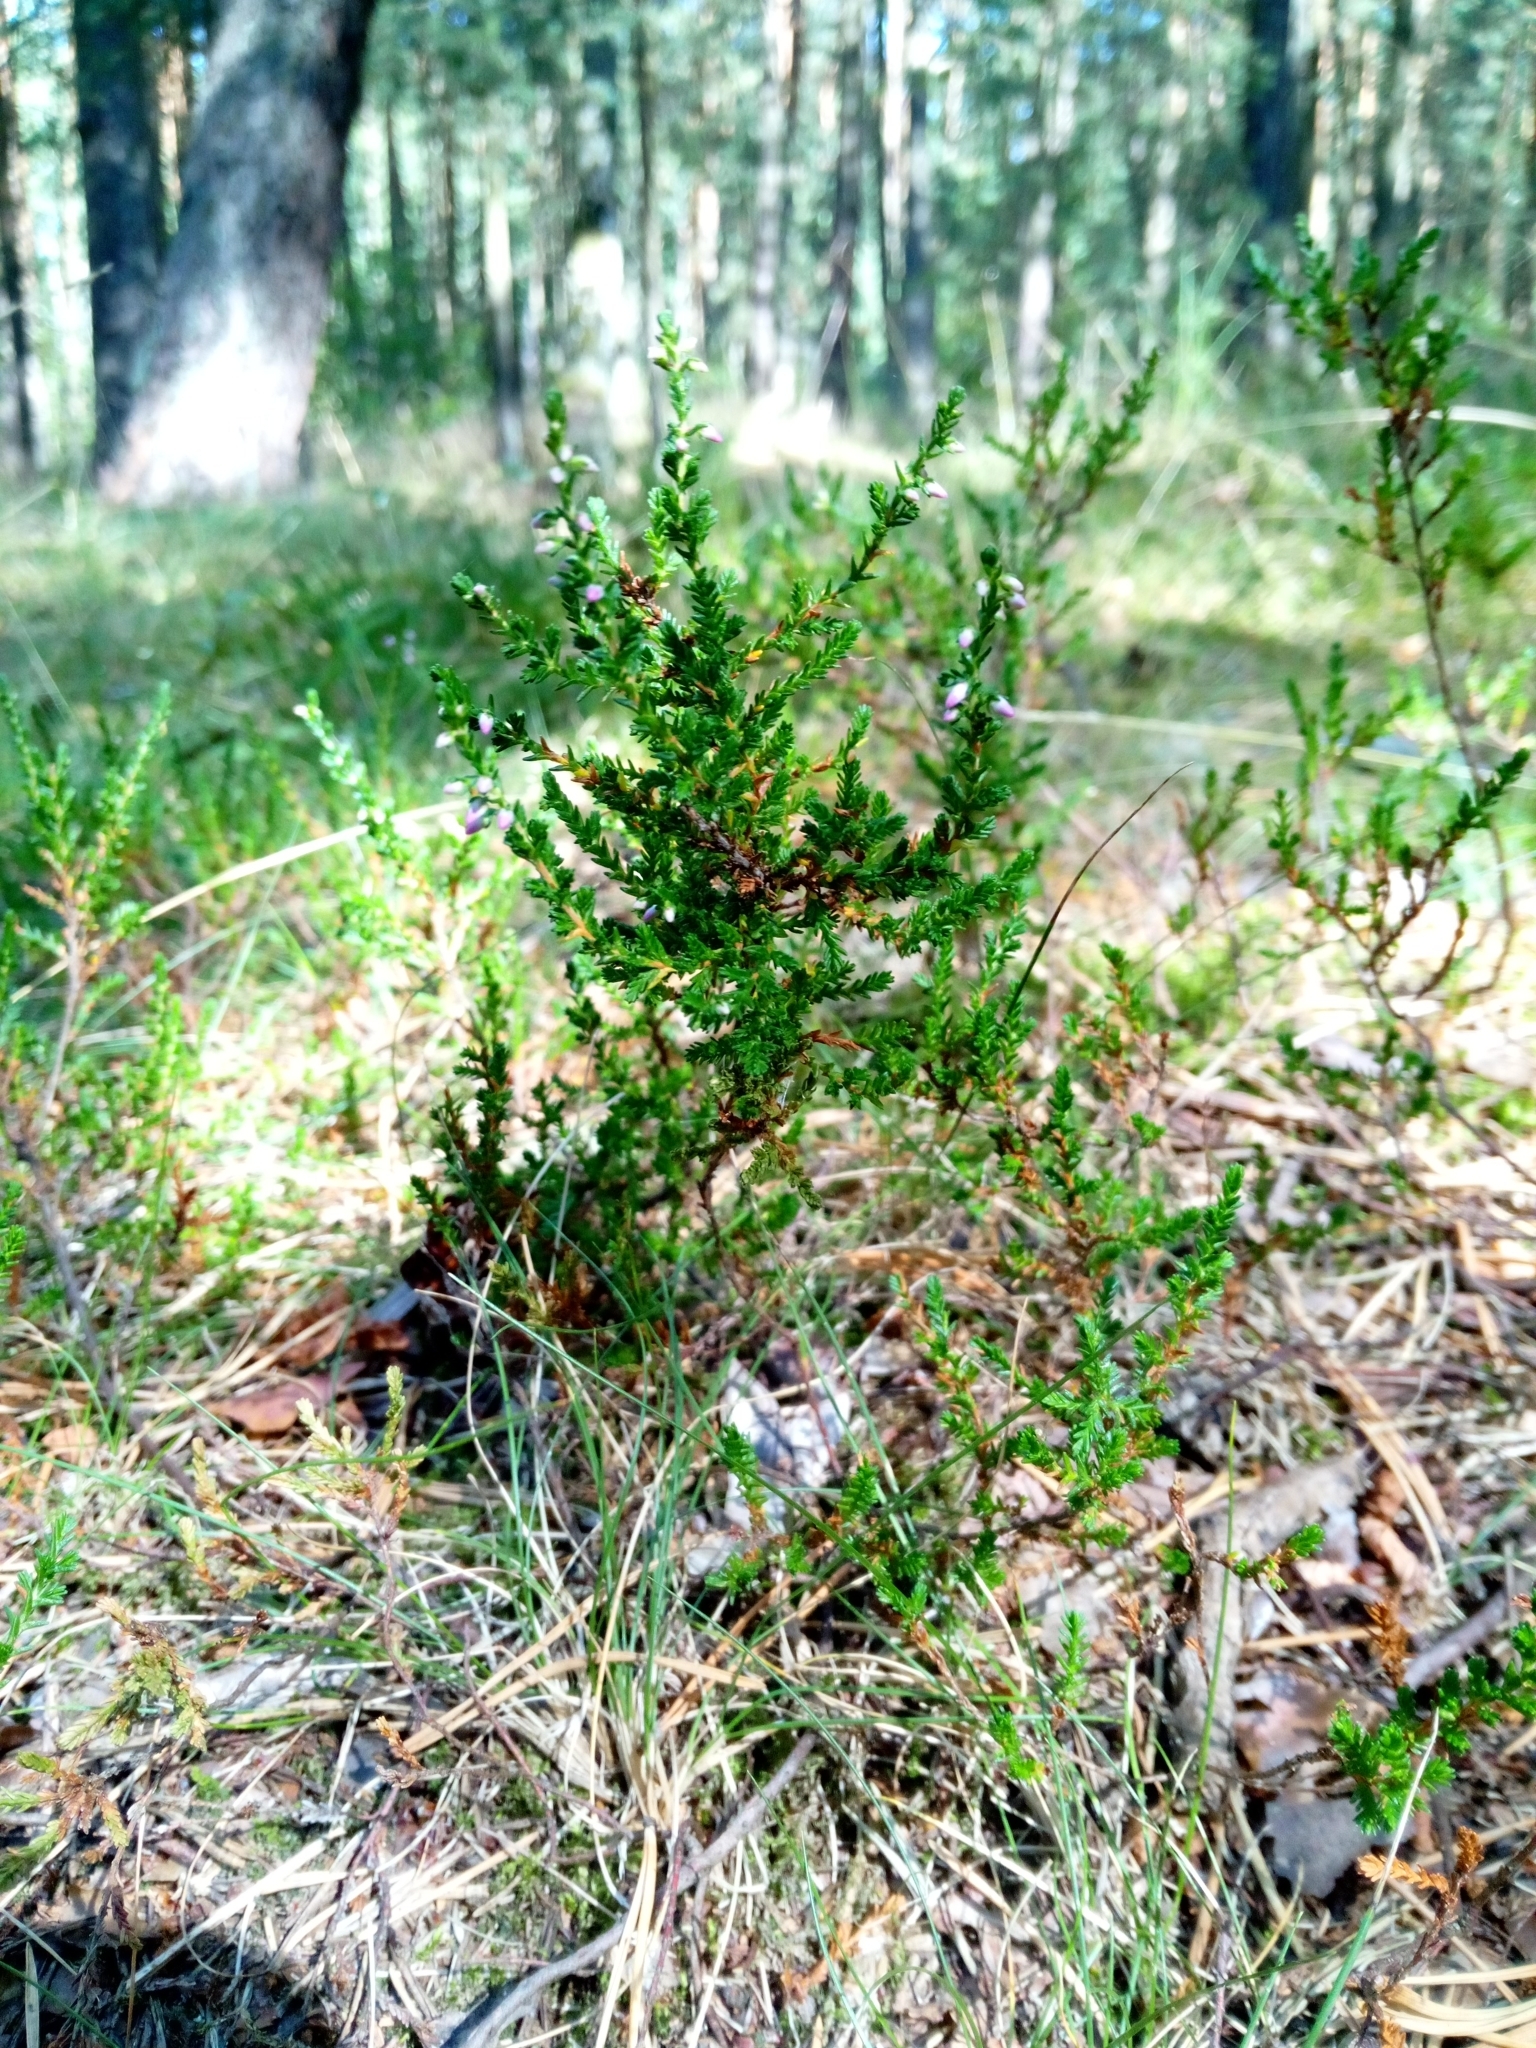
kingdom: Plantae
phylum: Tracheophyta
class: Magnoliopsida
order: Ericales
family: Ericaceae
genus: Calluna
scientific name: Calluna vulgaris
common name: Heather
